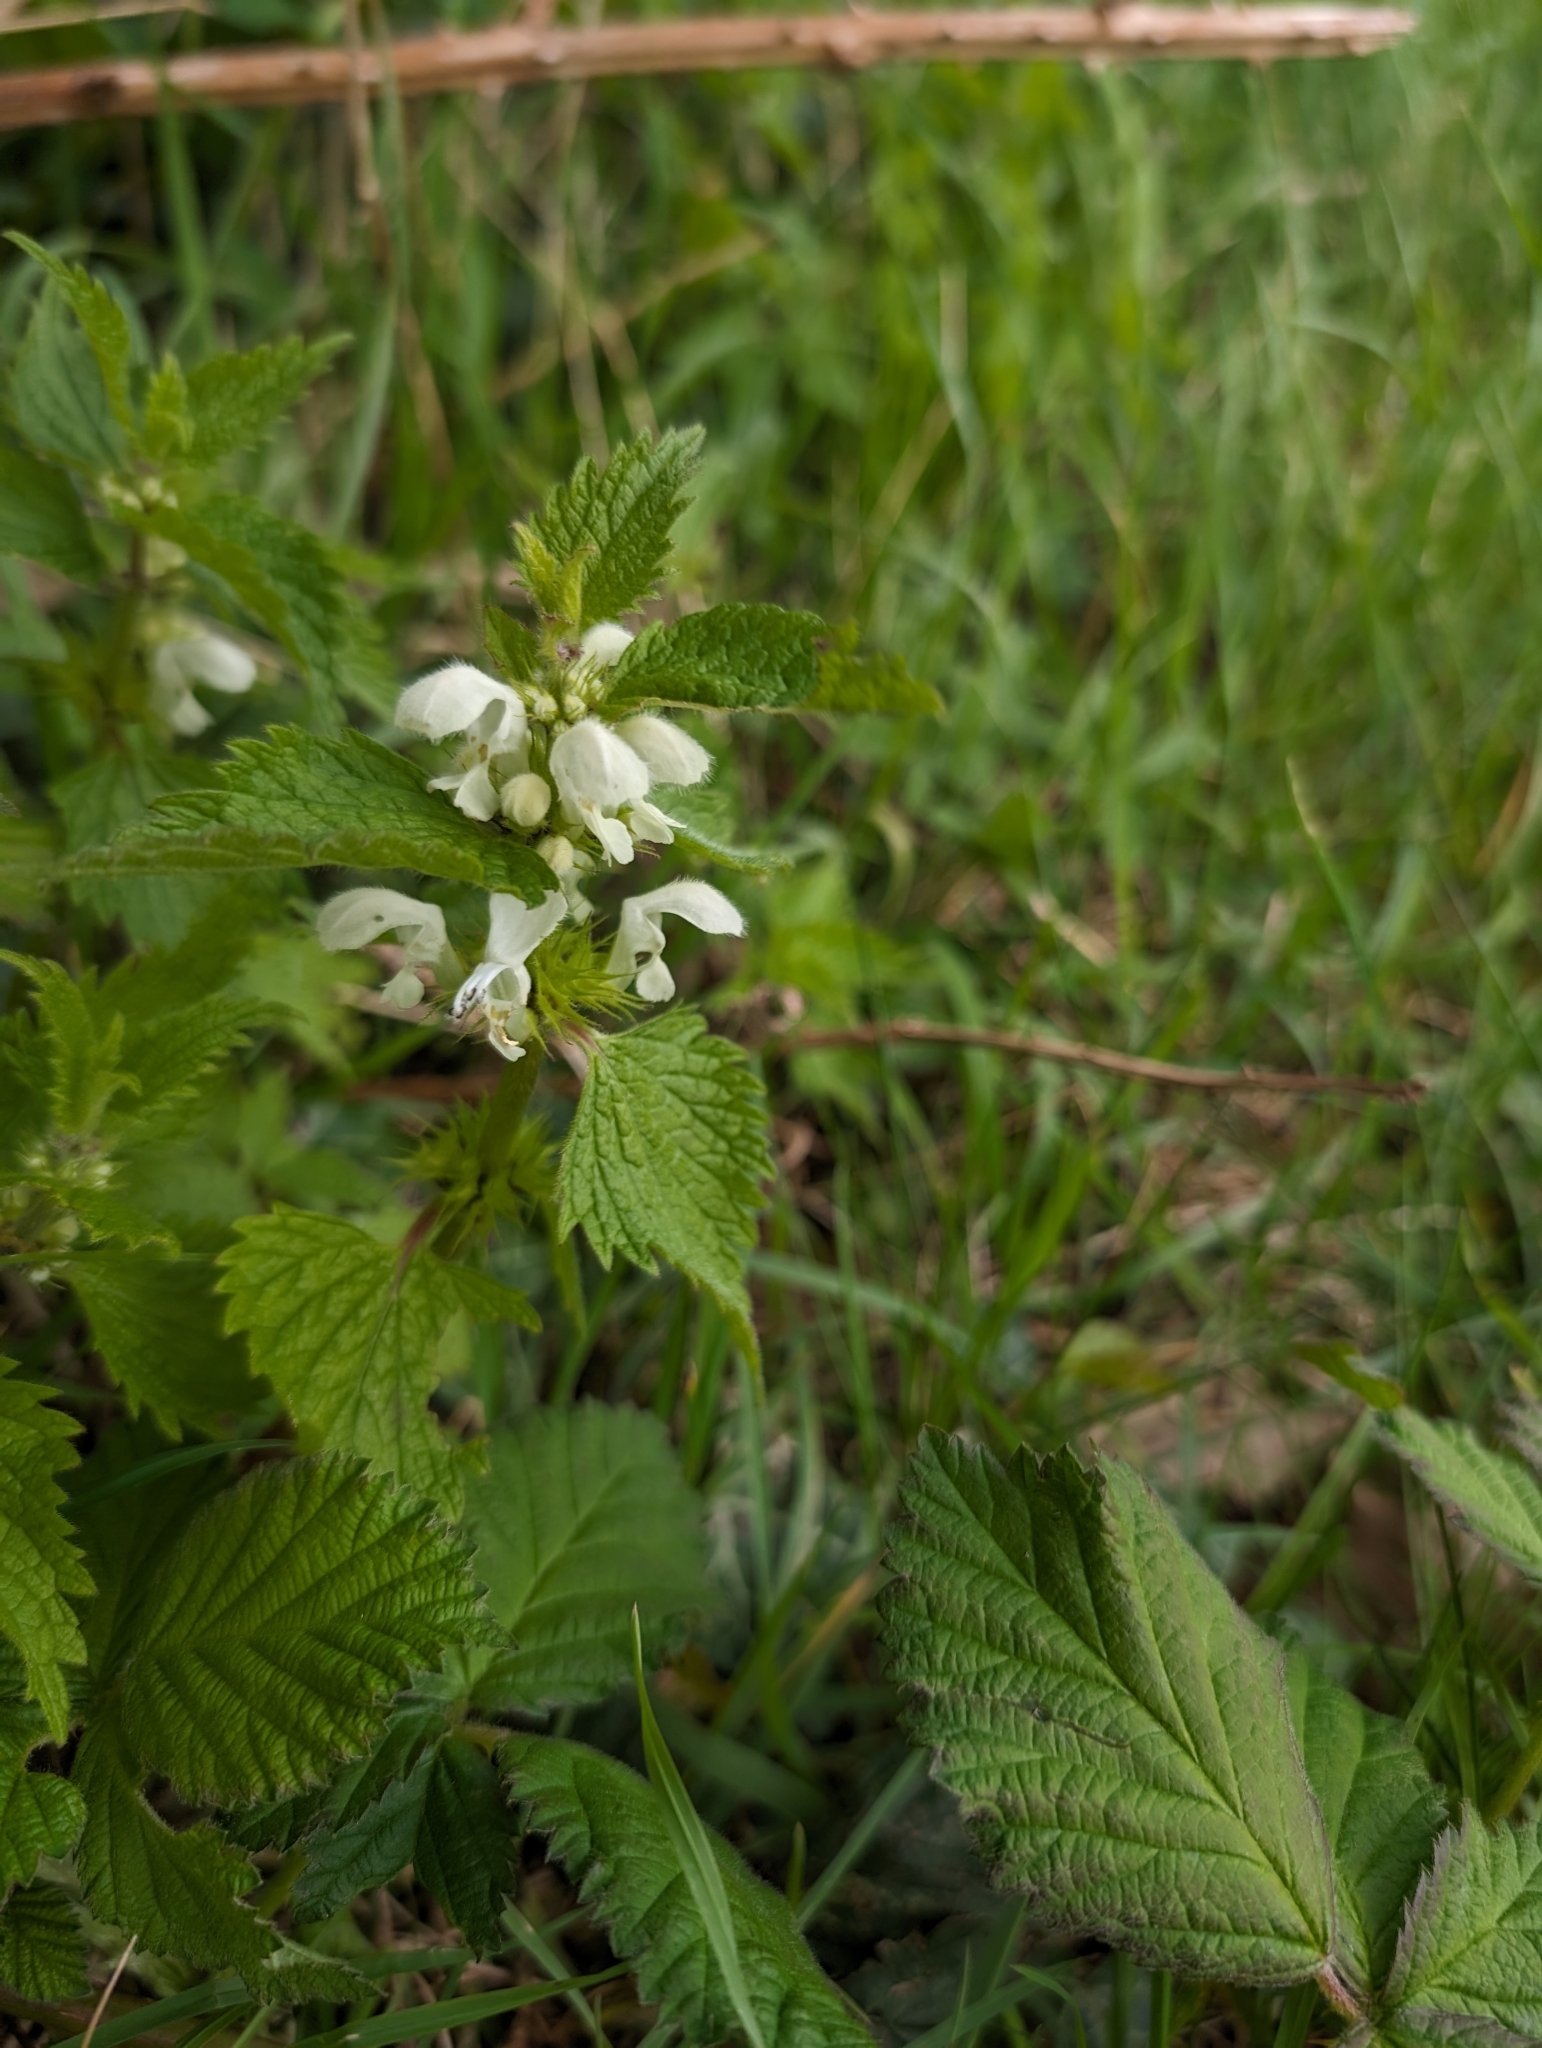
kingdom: Plantae
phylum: Tracheophyta
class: Magnoliopsida
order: Lamiales
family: Lamiaceae
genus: Lamium
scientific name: Lamium album
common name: White dead-nettle
